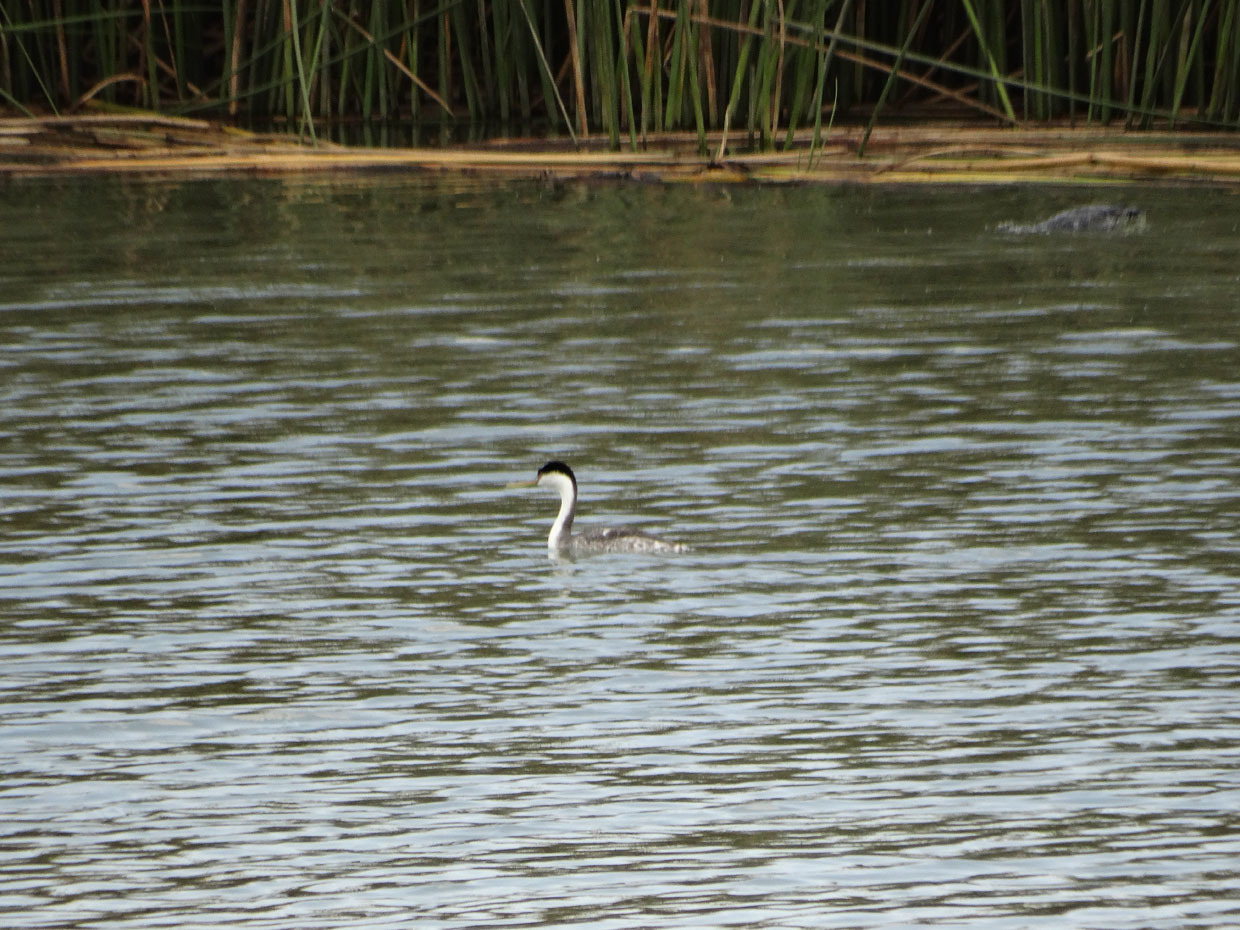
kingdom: Animalia
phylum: Chordata
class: Aves
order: Podicipediformes
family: Podicipedidae
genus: Aechmophorus
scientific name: Aechmophorus occidentalis
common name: Western grebe
